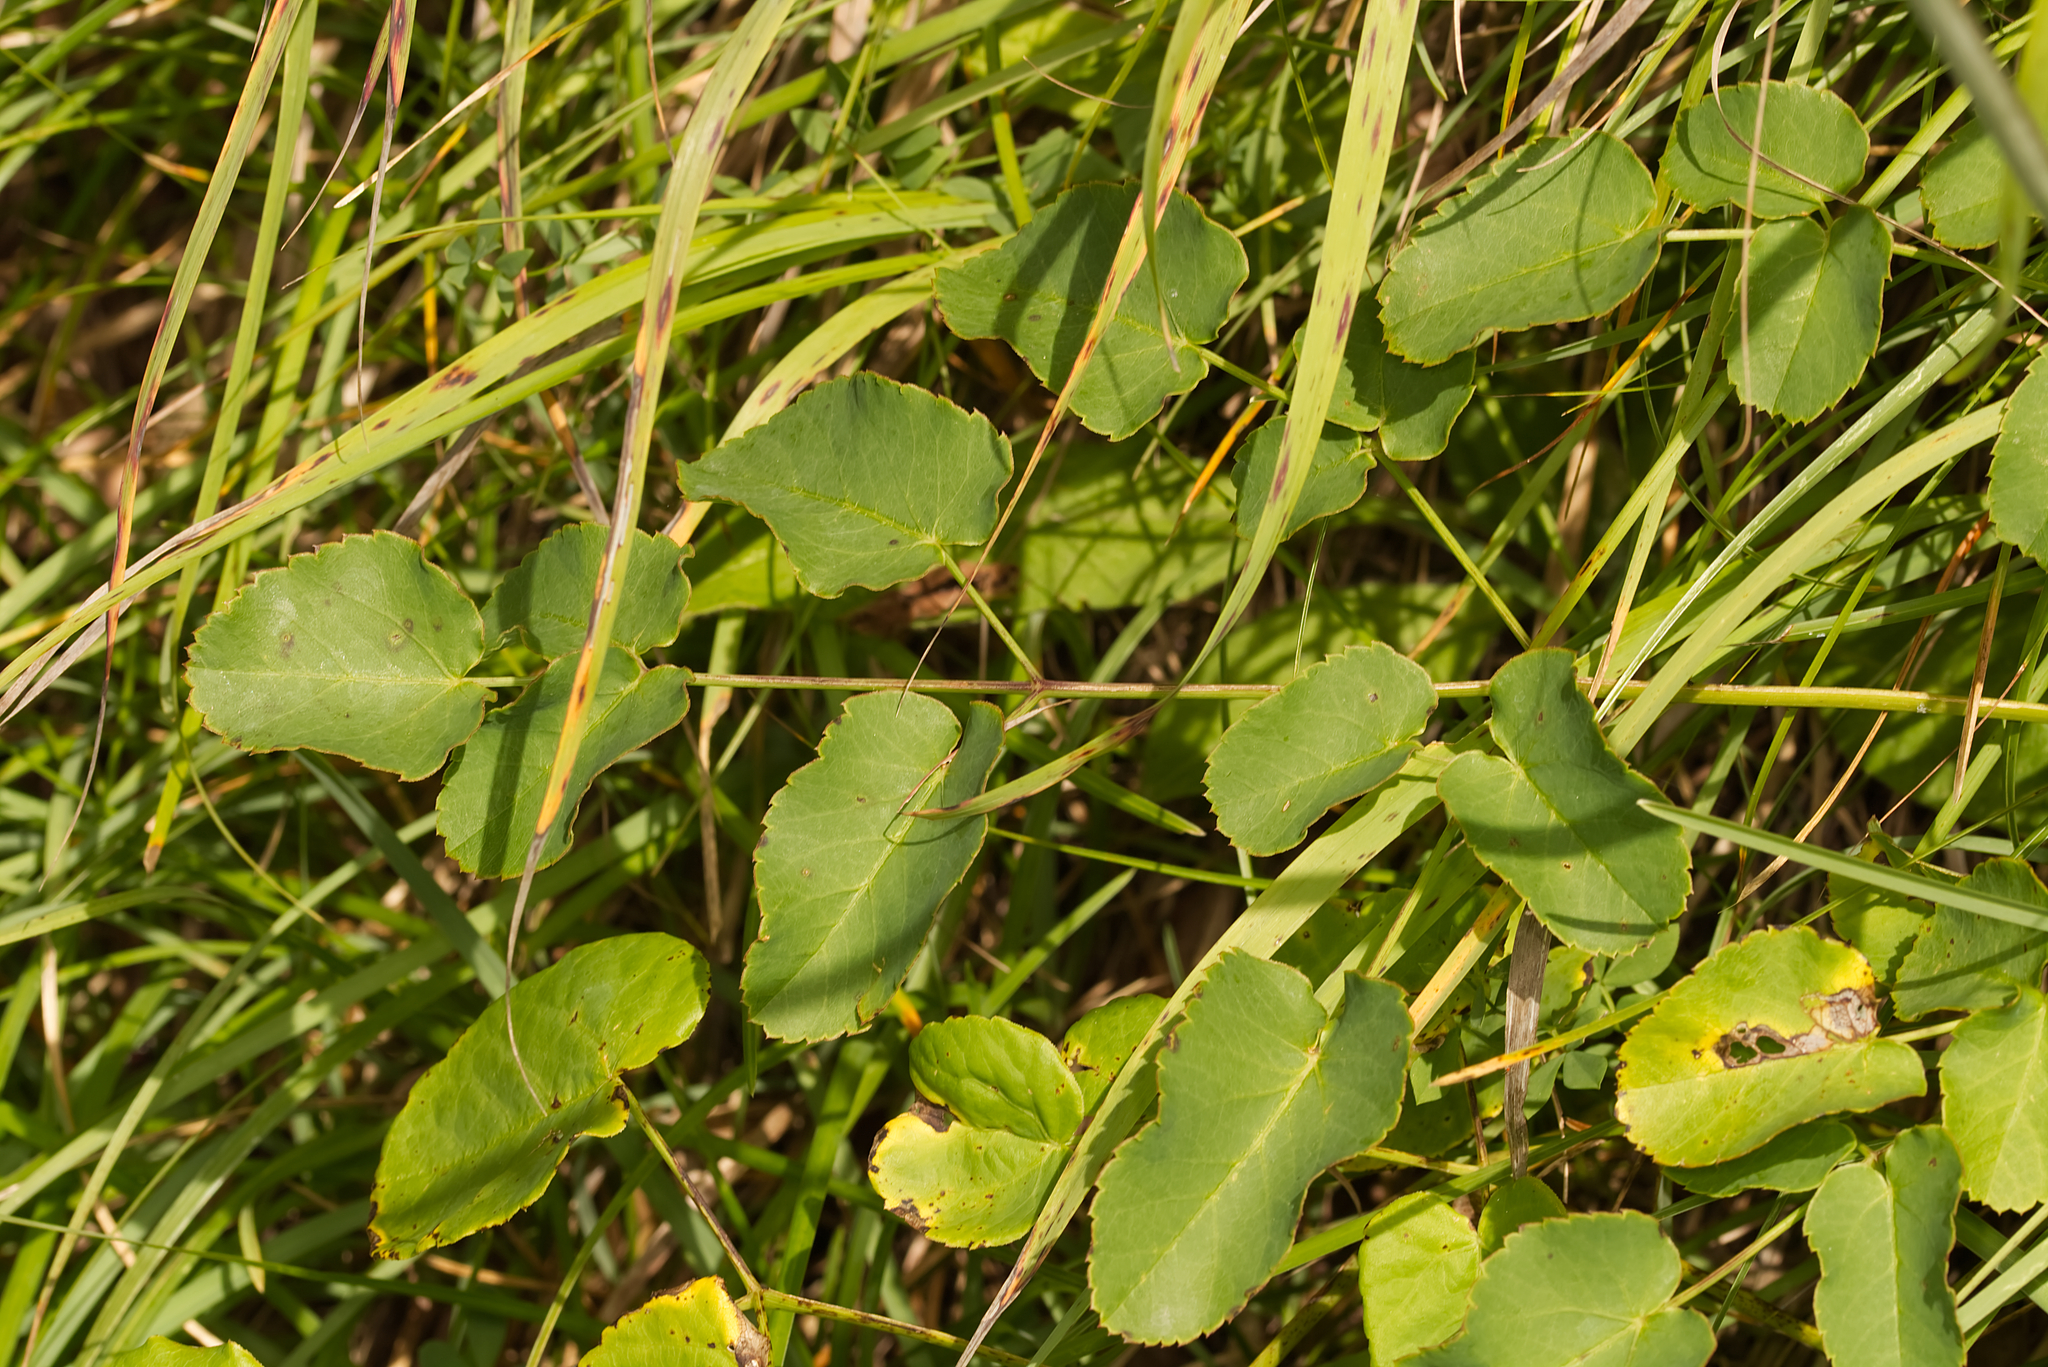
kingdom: Plantae
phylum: Tracheophyta
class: Magnoliopsida
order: Apiales
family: Apiaceae
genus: Laserpitium
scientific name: Laserpitium latifolium
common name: Broadleaf sermountain
